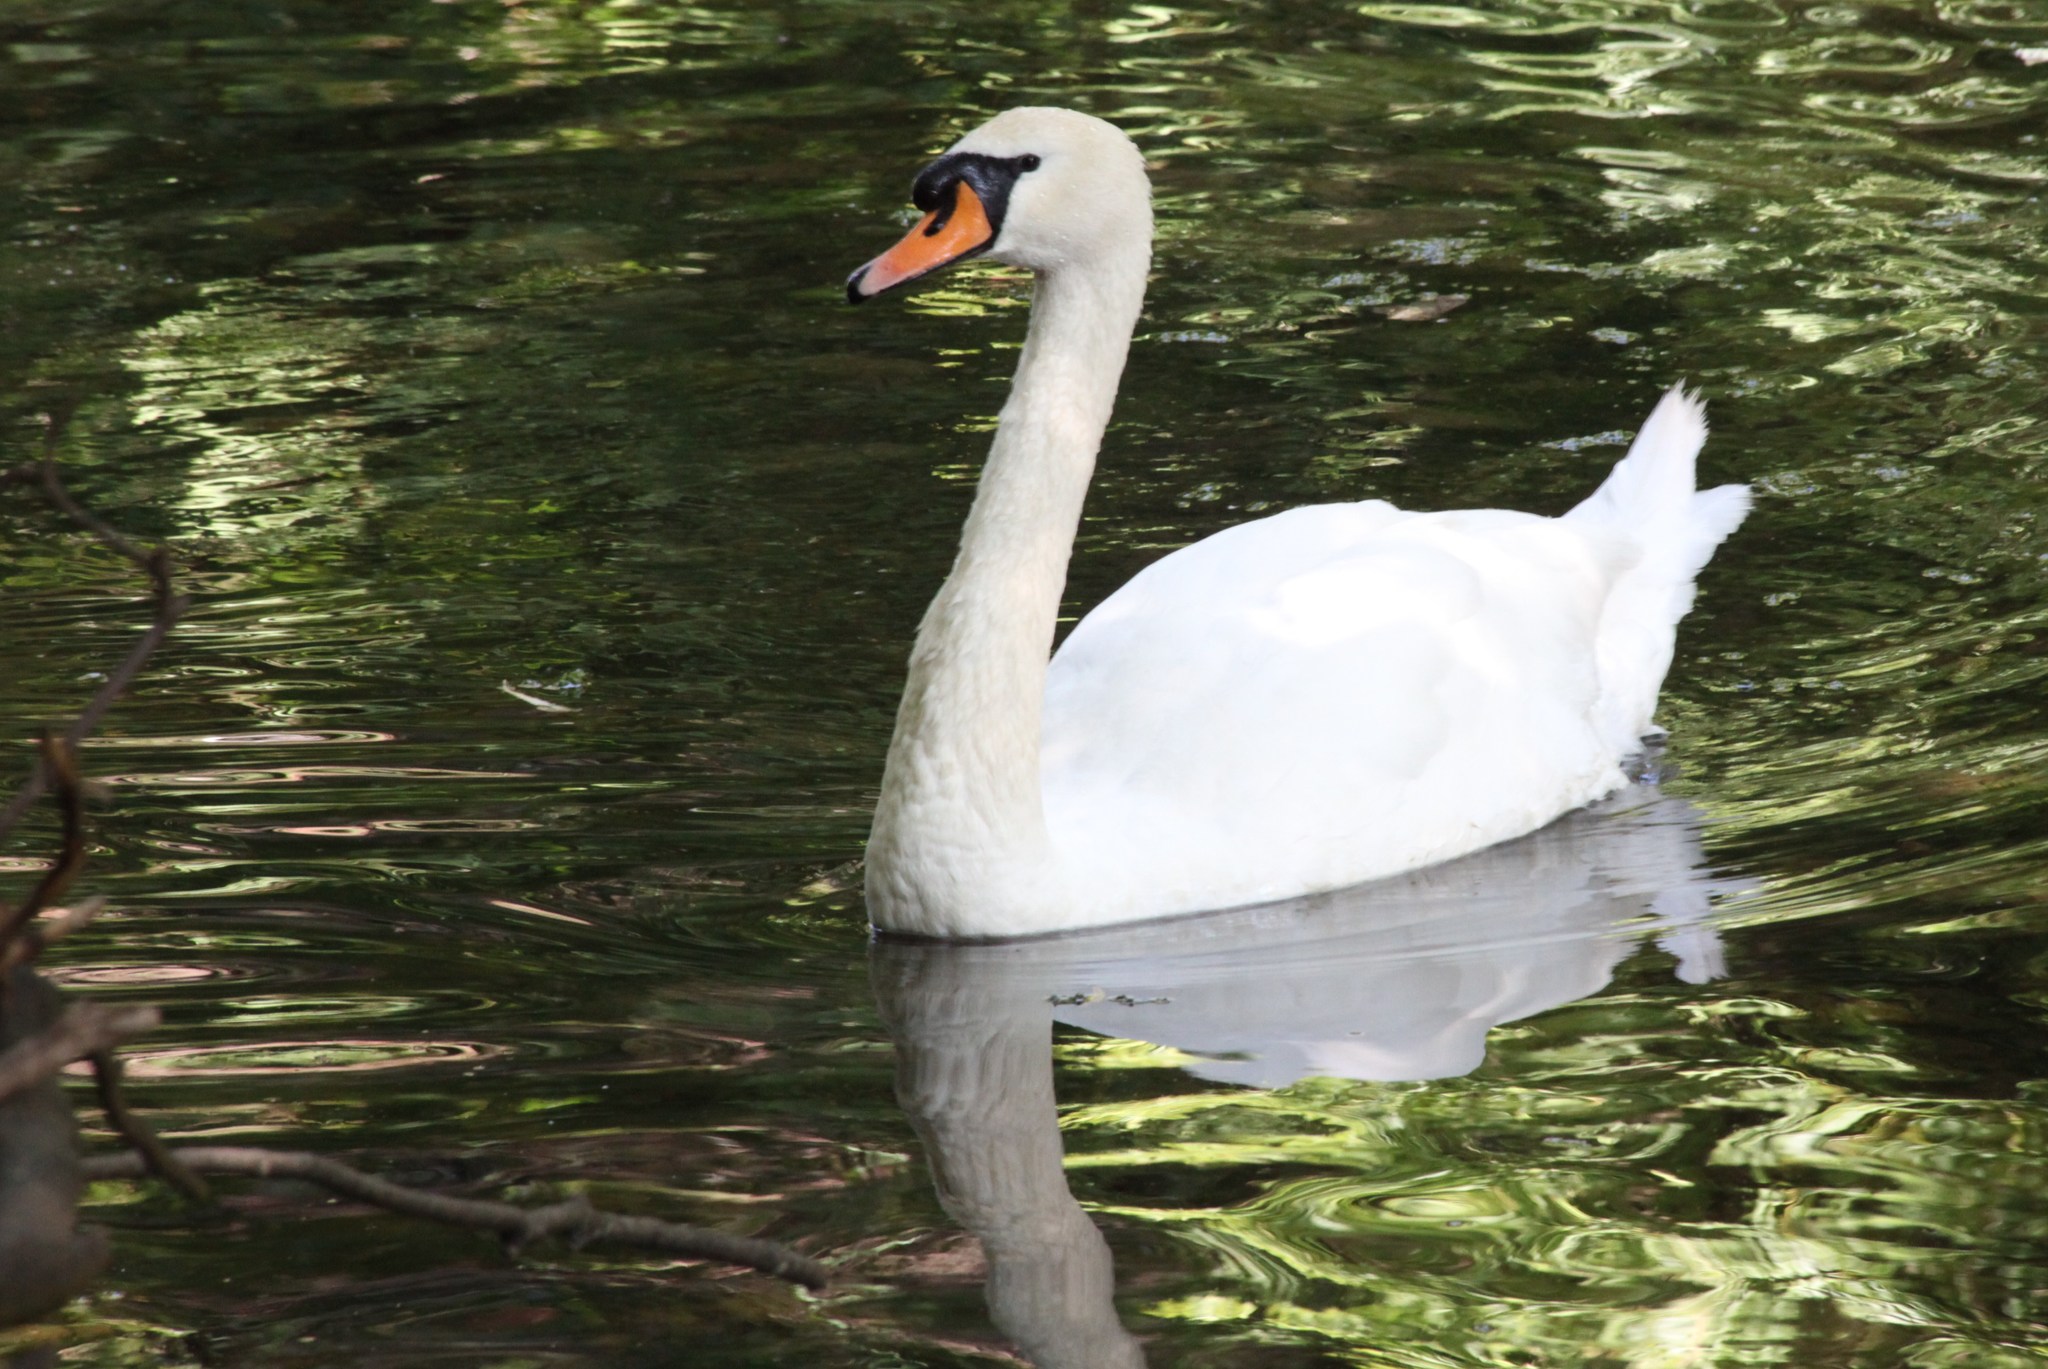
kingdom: Animalia
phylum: Chordata
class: Aves
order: Anseriformes
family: Anatidae
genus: Cygnus
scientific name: Cygnus olor
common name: Mute swan
